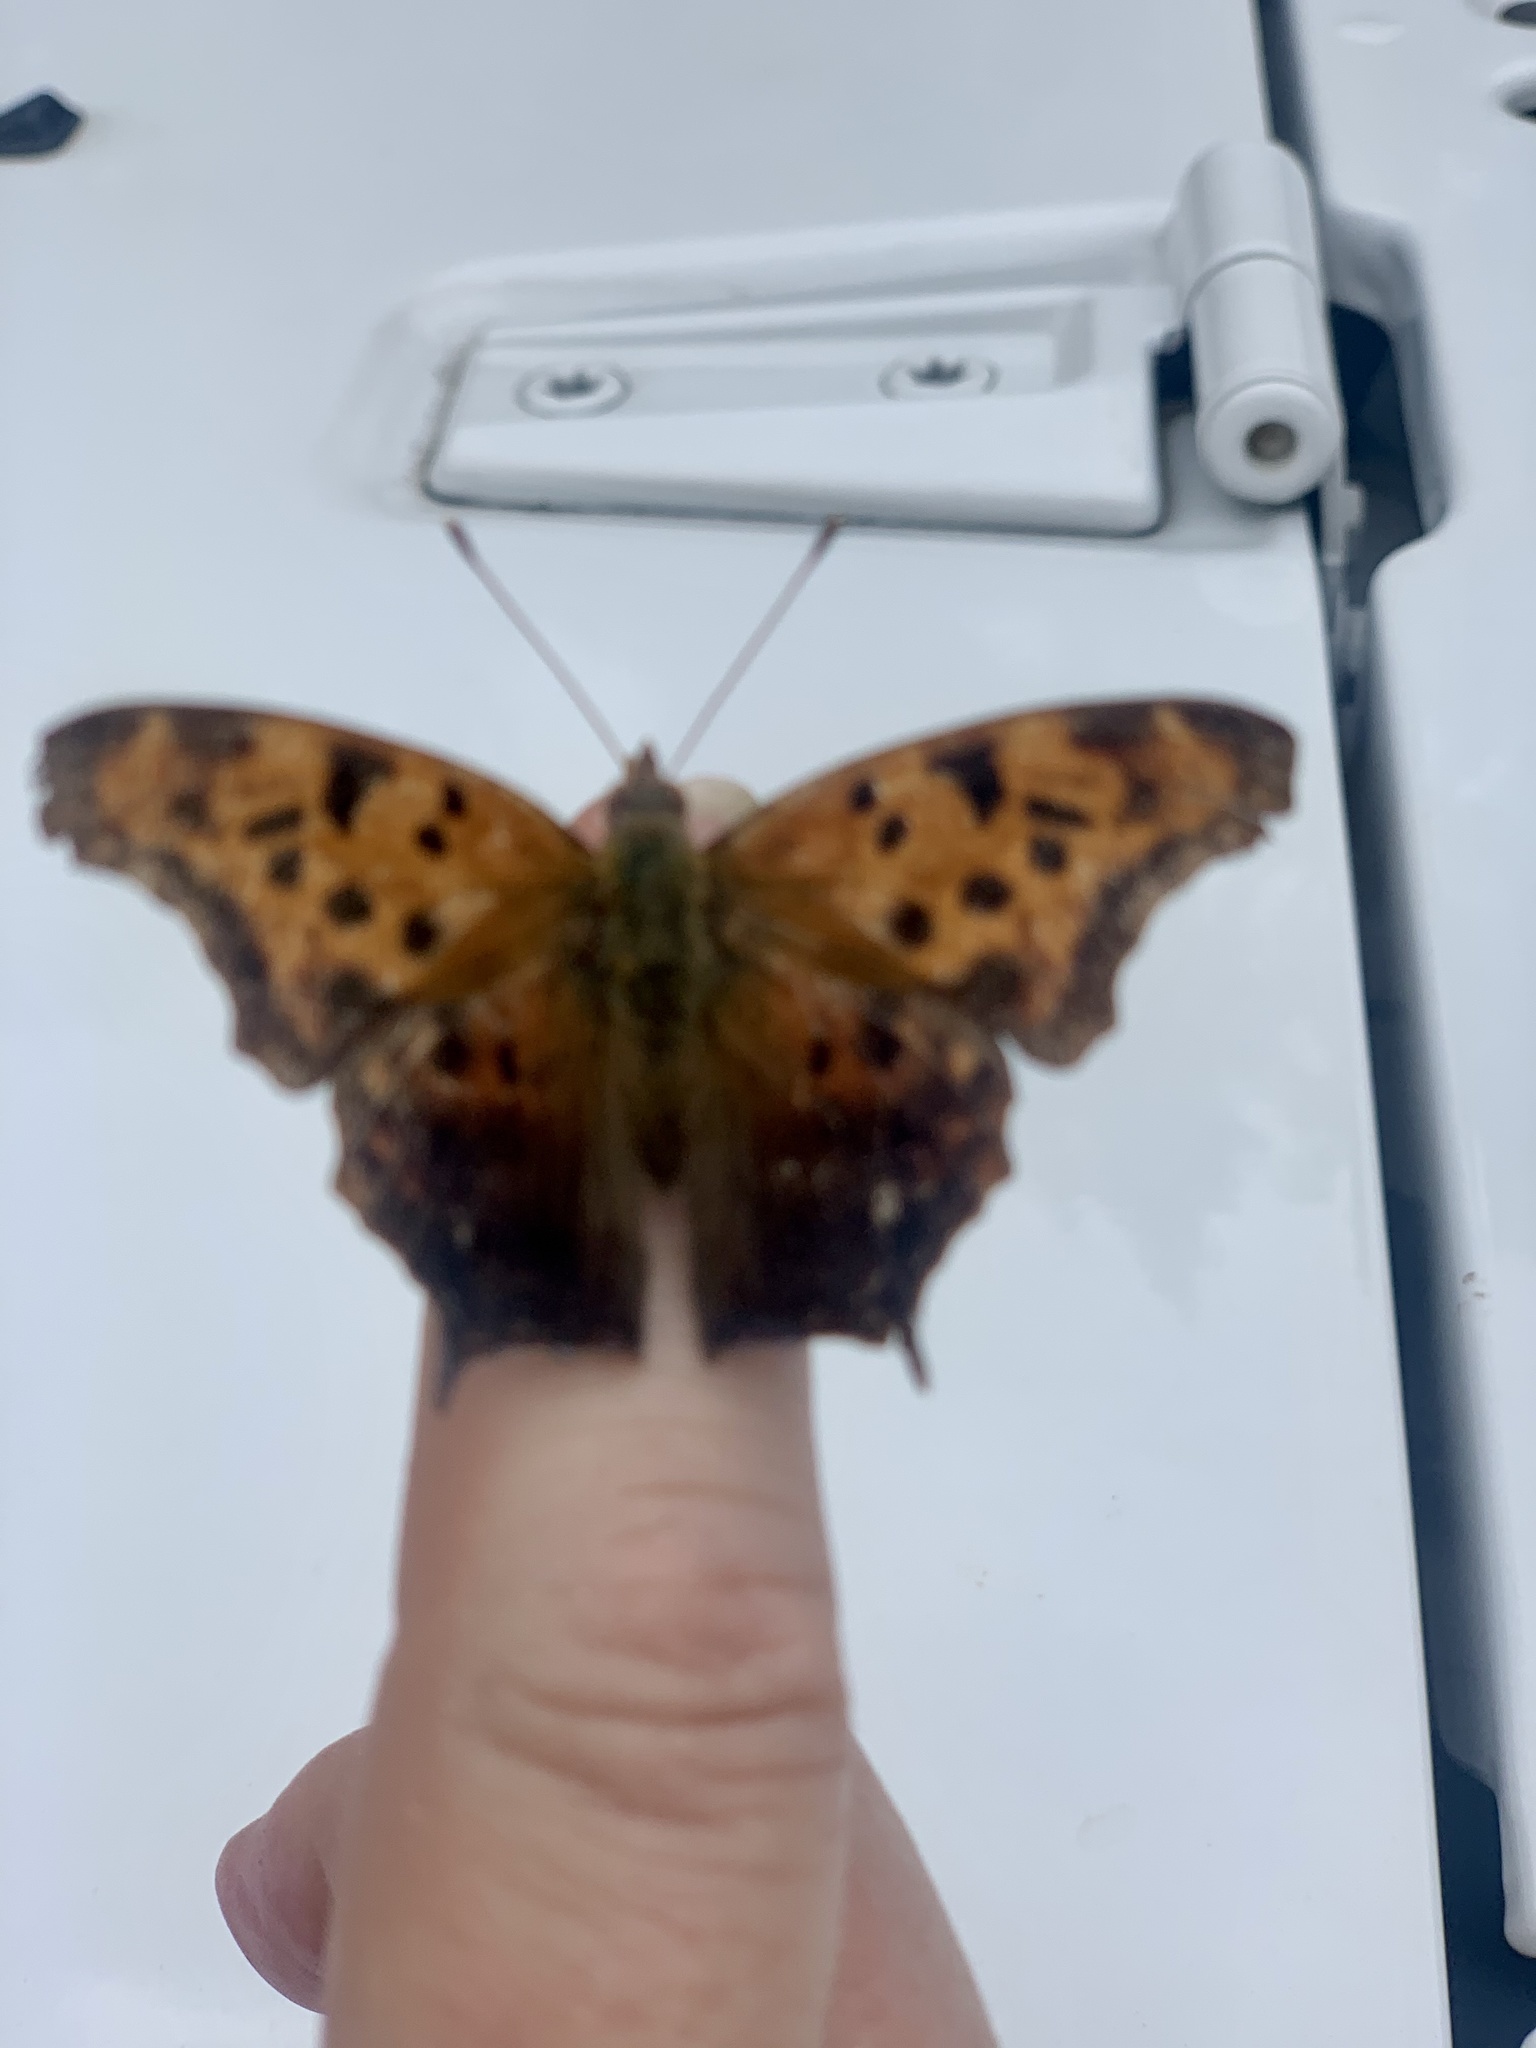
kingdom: Animalia
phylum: Arthropoda
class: Insecta
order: Lepidoptera
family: Nymphalidae
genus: Polygonia
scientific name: Polygonia interrogationis
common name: Question mark
